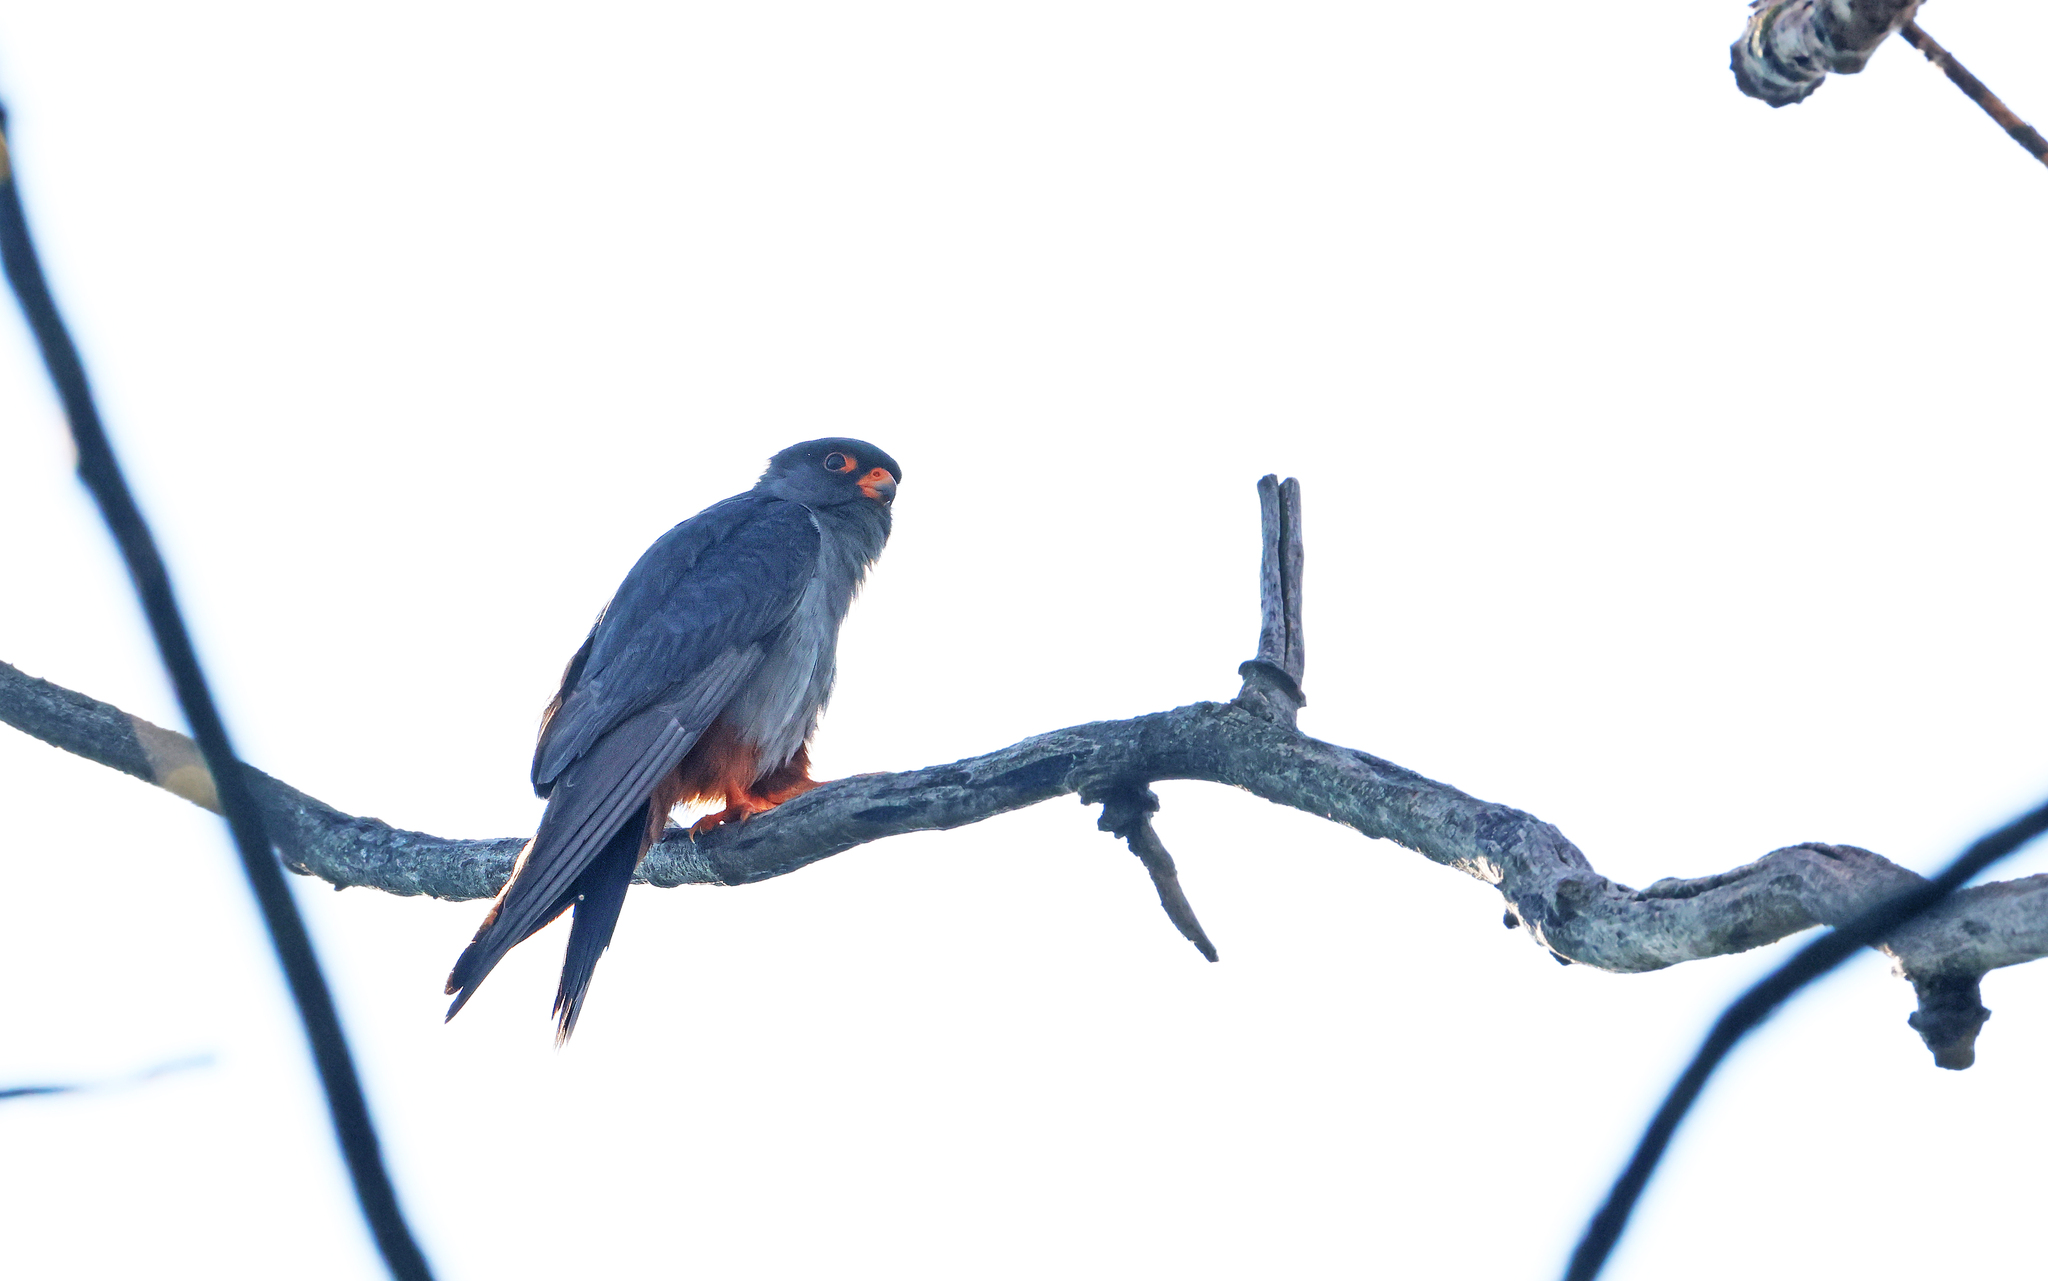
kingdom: Animalia
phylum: Chordata
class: Aves
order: Falconiformes
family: Falconidae
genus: Falco
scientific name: Falco vespertinus
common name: Red-footed falcon
